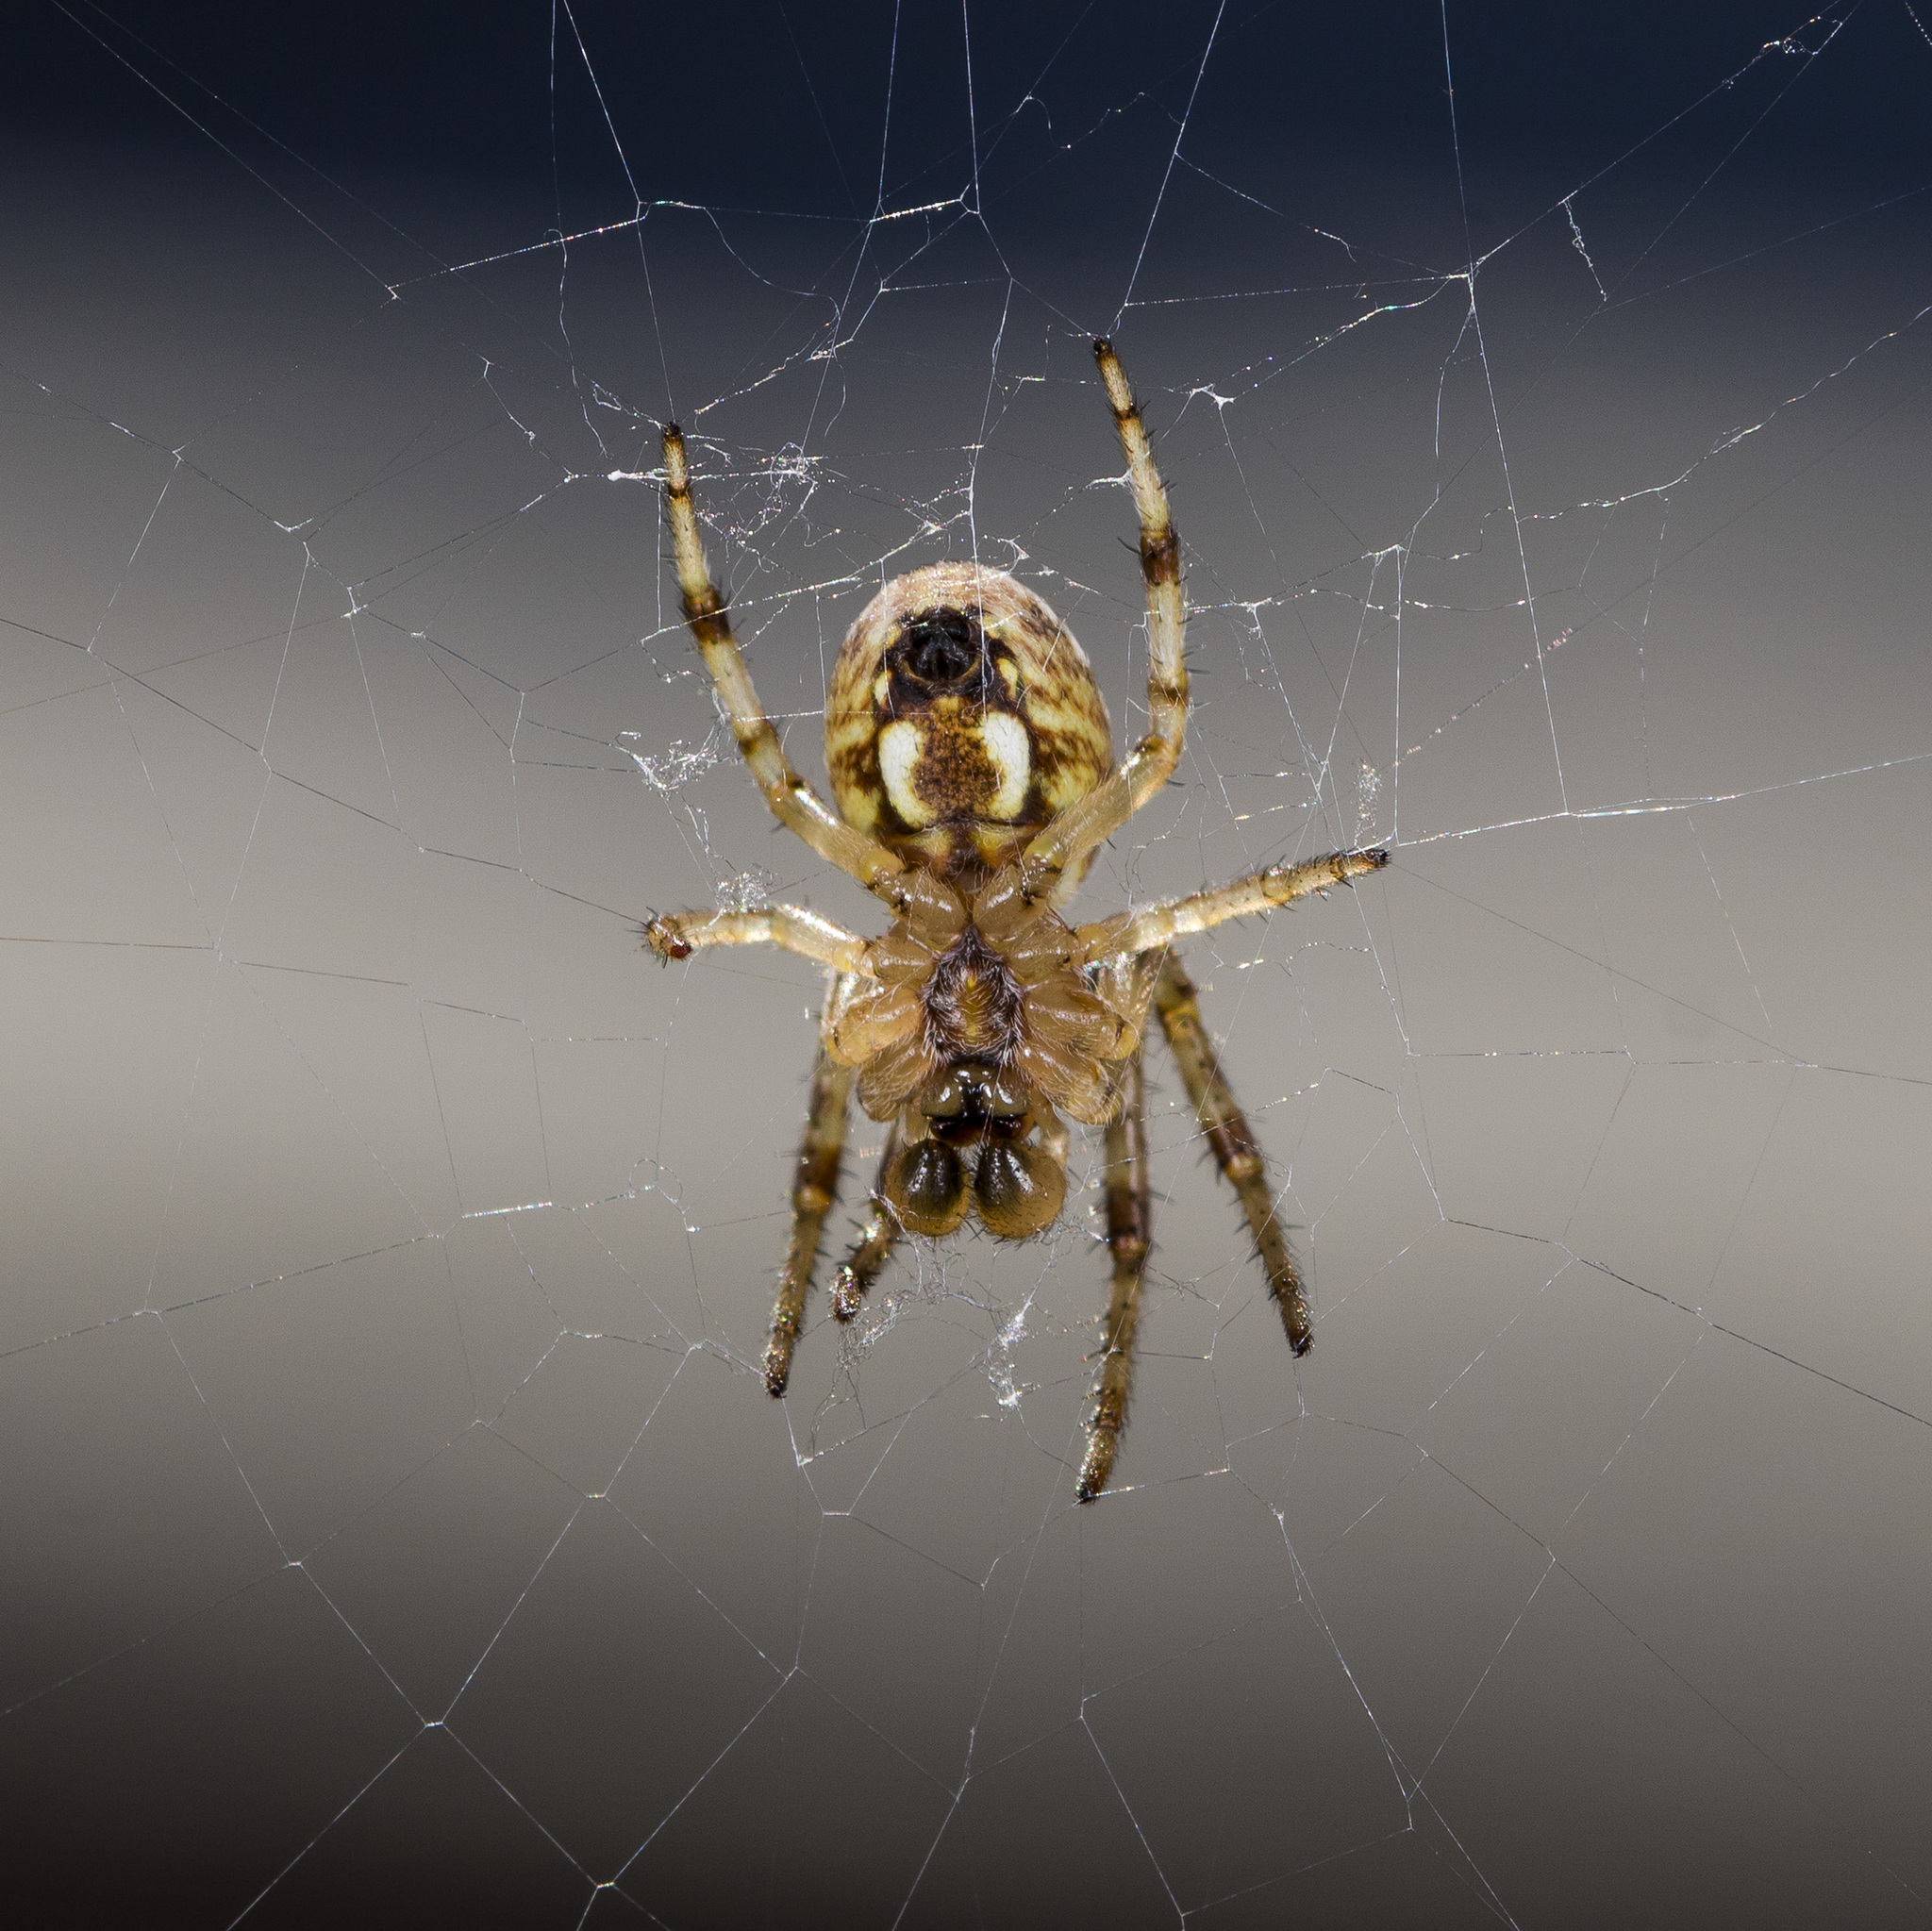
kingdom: Animalia
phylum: Arthropoda
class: Arachnida
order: Araneae
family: Araneidae
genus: Araneus
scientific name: Araneus pallasi
